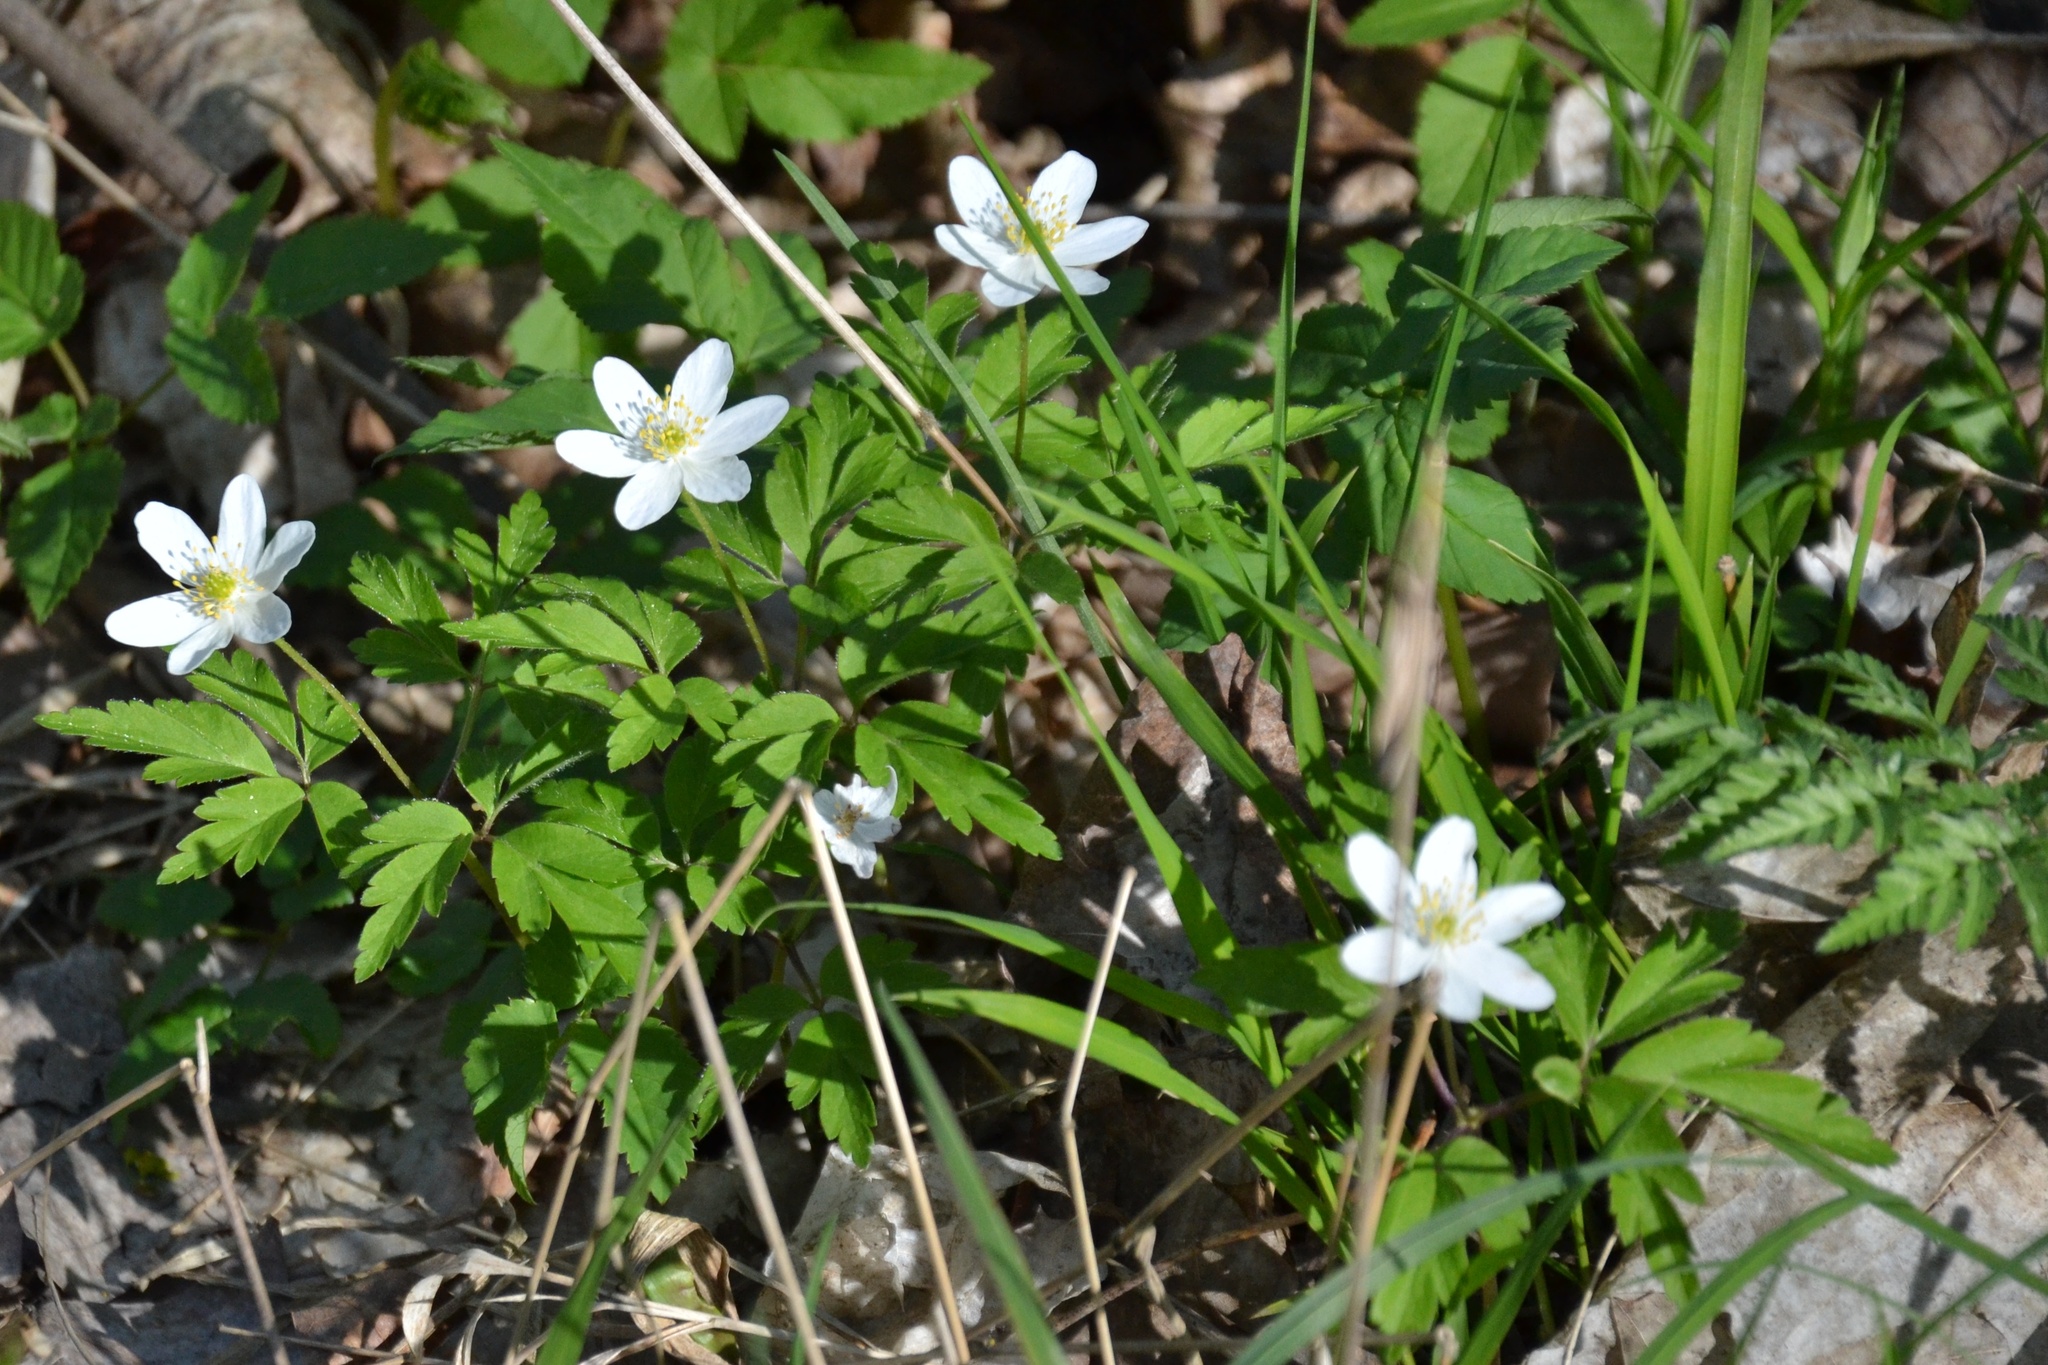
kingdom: Plantae
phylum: Tracheophyta
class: Magnoliopsida
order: Ranunculales
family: Ranunculaceae
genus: Anemone
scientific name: Anemone nemorosa
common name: Wood anemone
